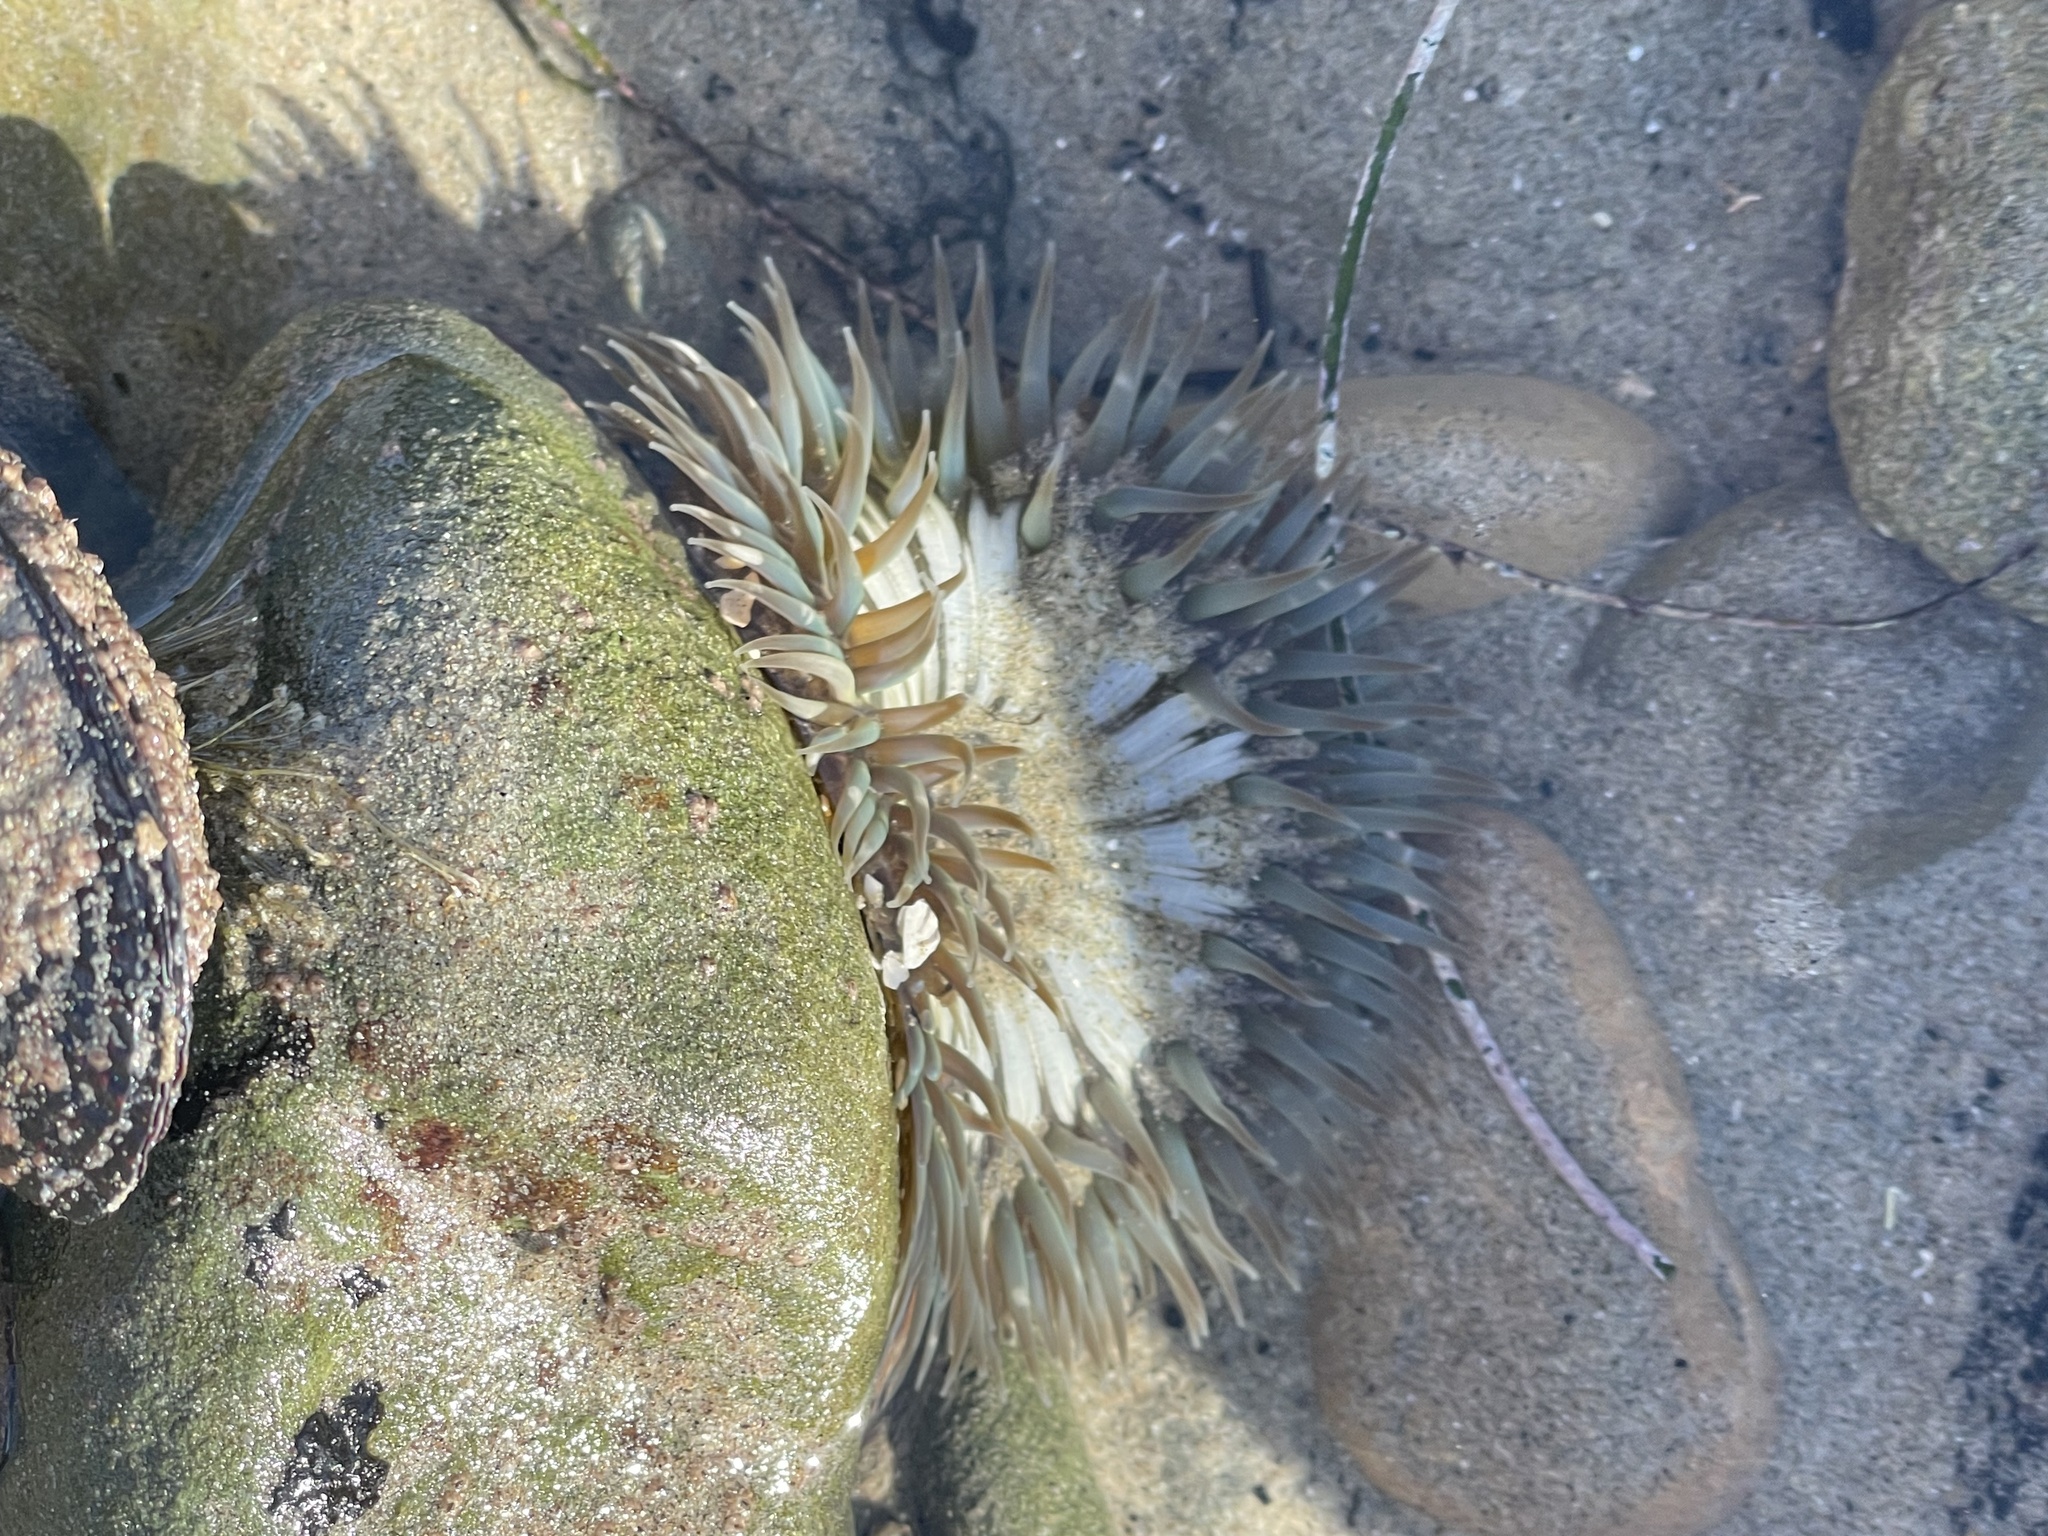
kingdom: Animalia
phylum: Cnidaria
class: Anthozoa
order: Actiniaria
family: Actiniidae
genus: Anthopleura
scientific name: Anthopleura elegantissima
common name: Clonal anemone
